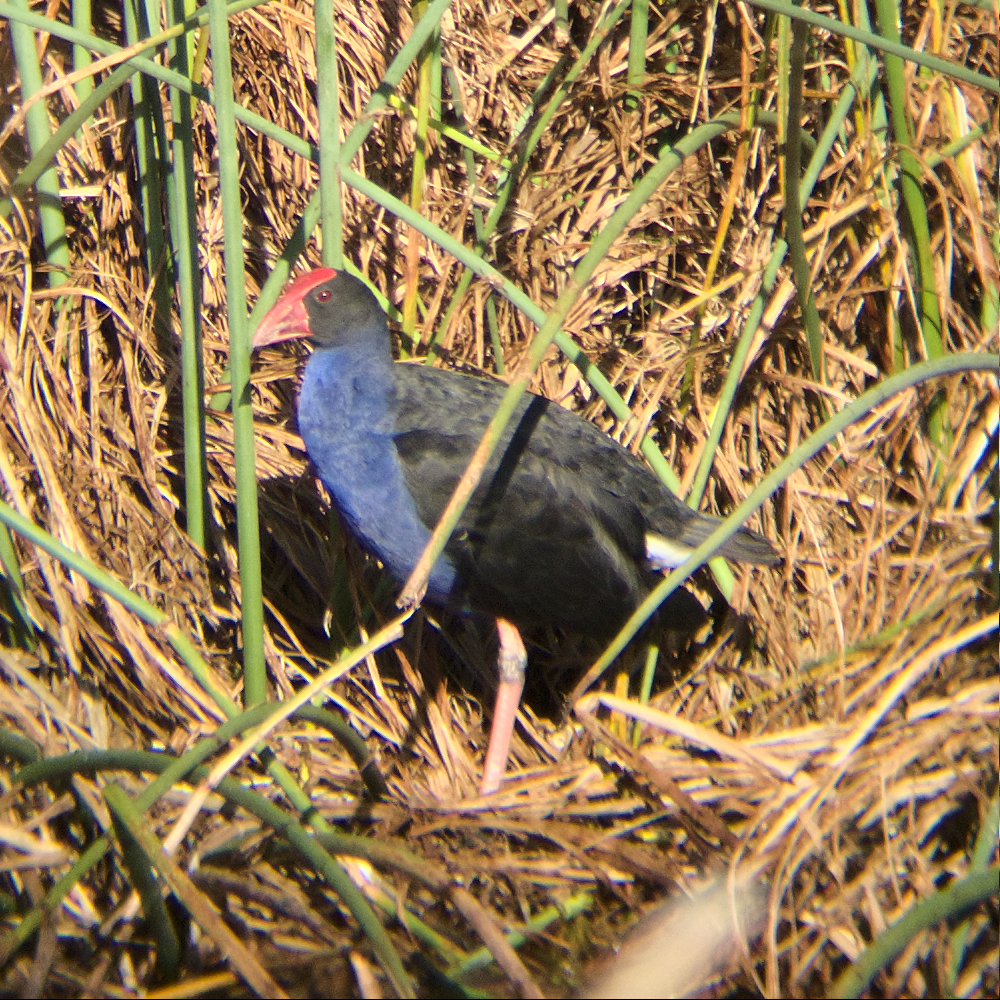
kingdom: Animalia
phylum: Chordata
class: Aves
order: Gruiformes
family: Rallidae
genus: Porphyrio
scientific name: Porphyrio melanotus
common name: Australasian swamphen
